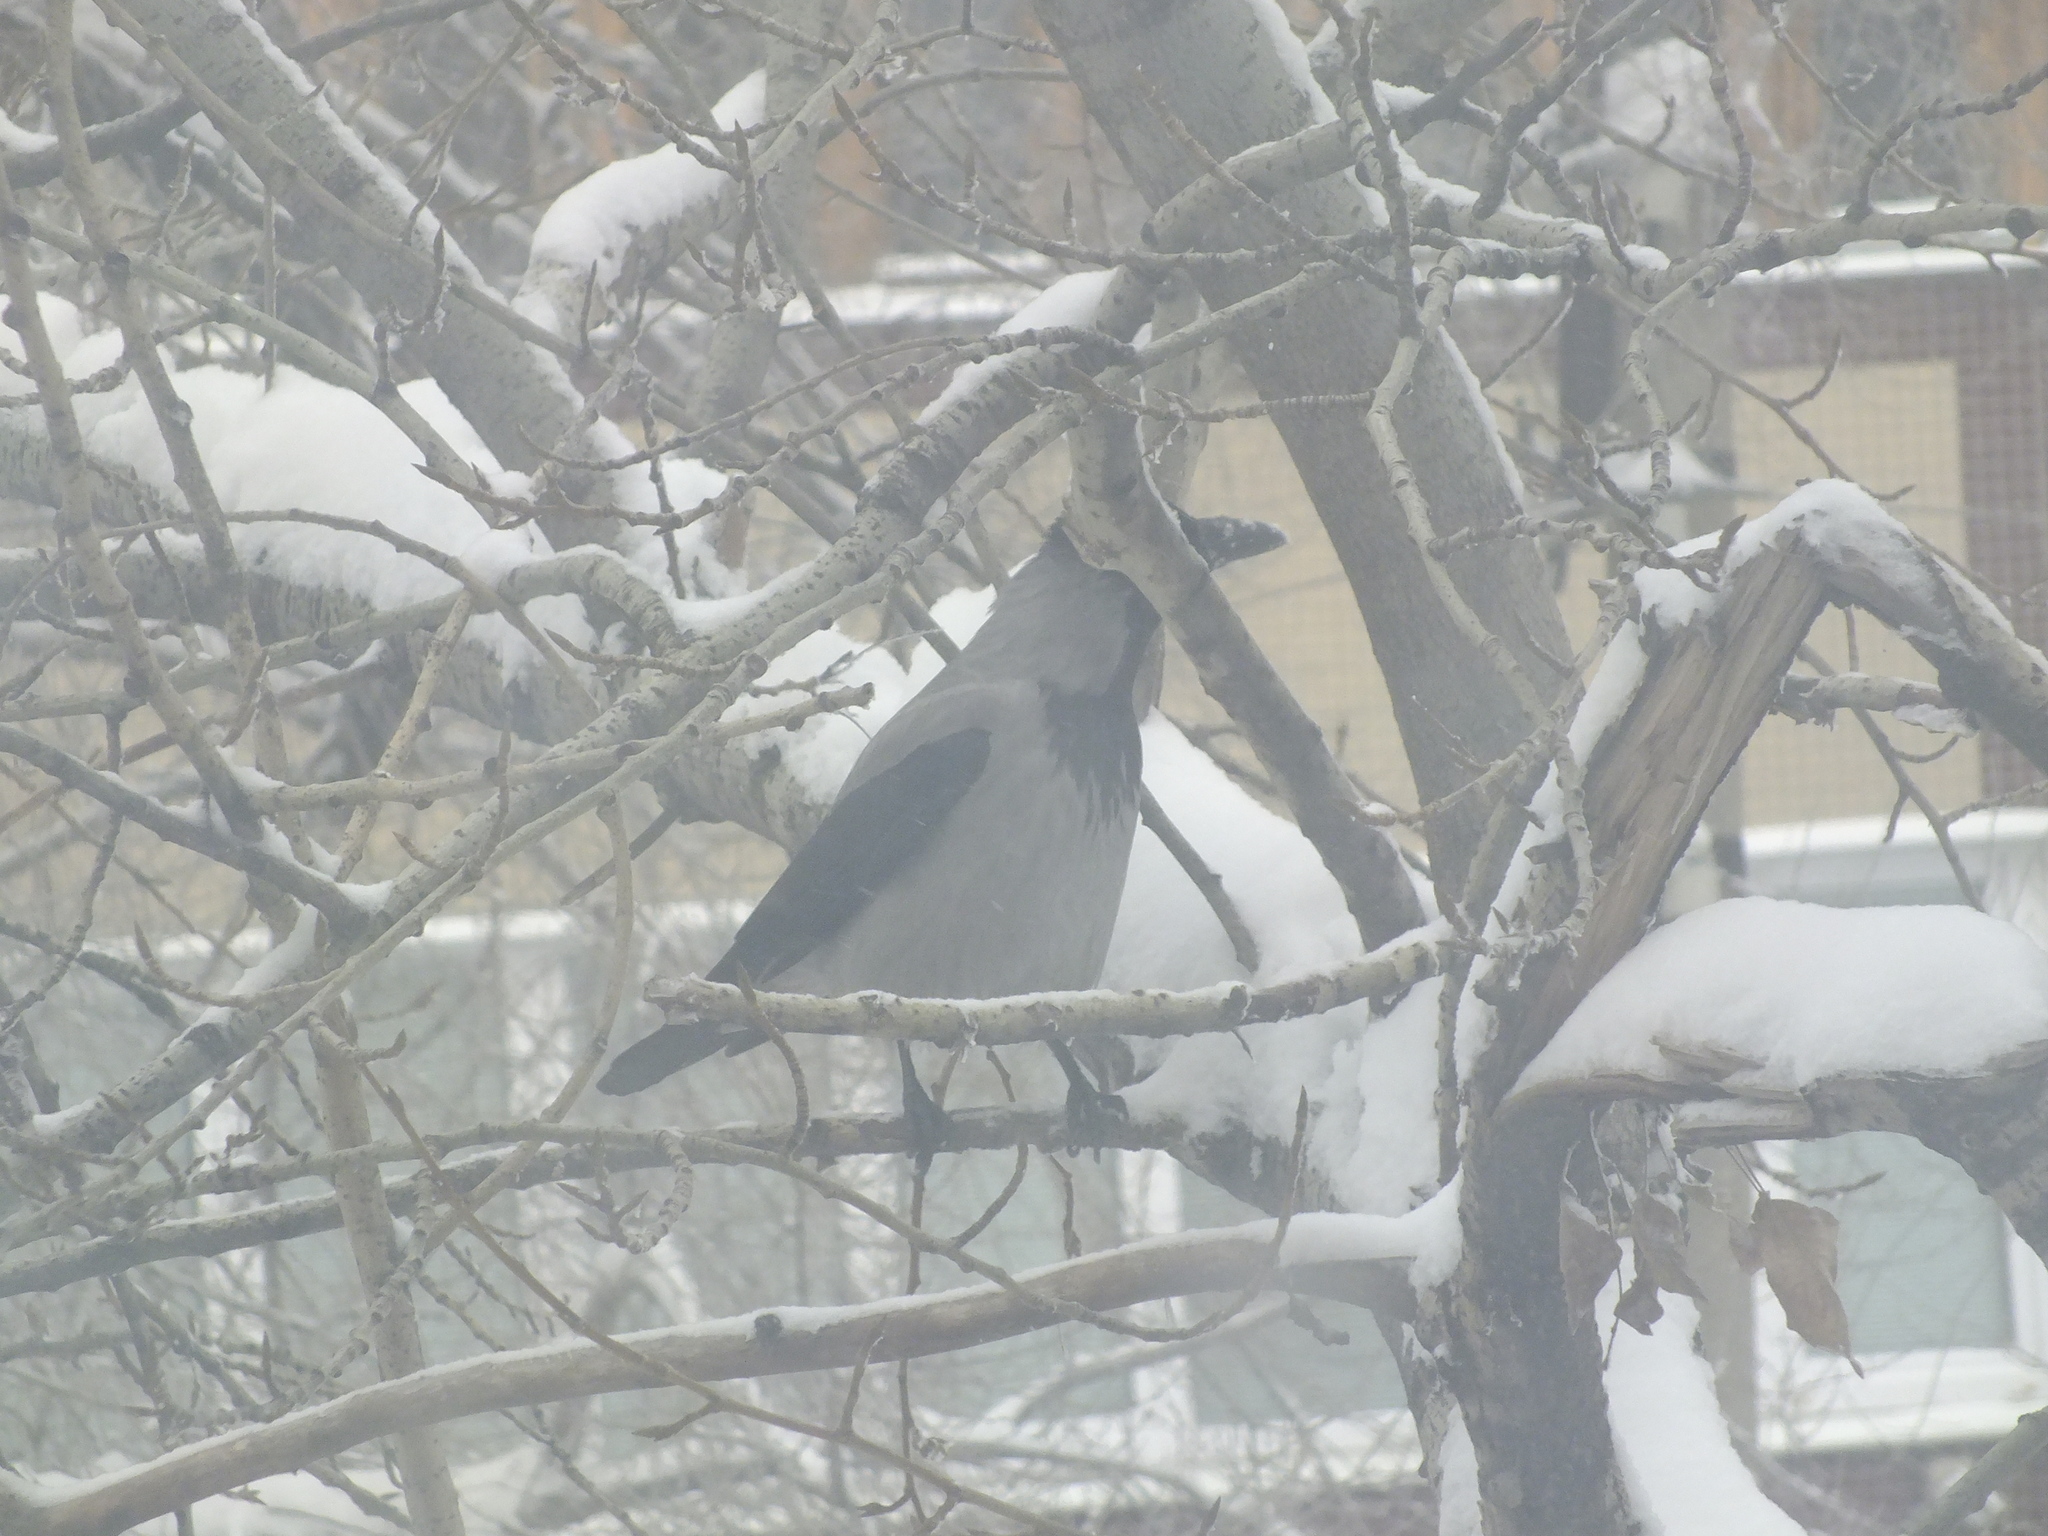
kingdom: Animalia
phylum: Chordata
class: Aves
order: Passeriformes
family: Corvidae
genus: Corvus
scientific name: Corvus cornix
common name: Hooded crow
